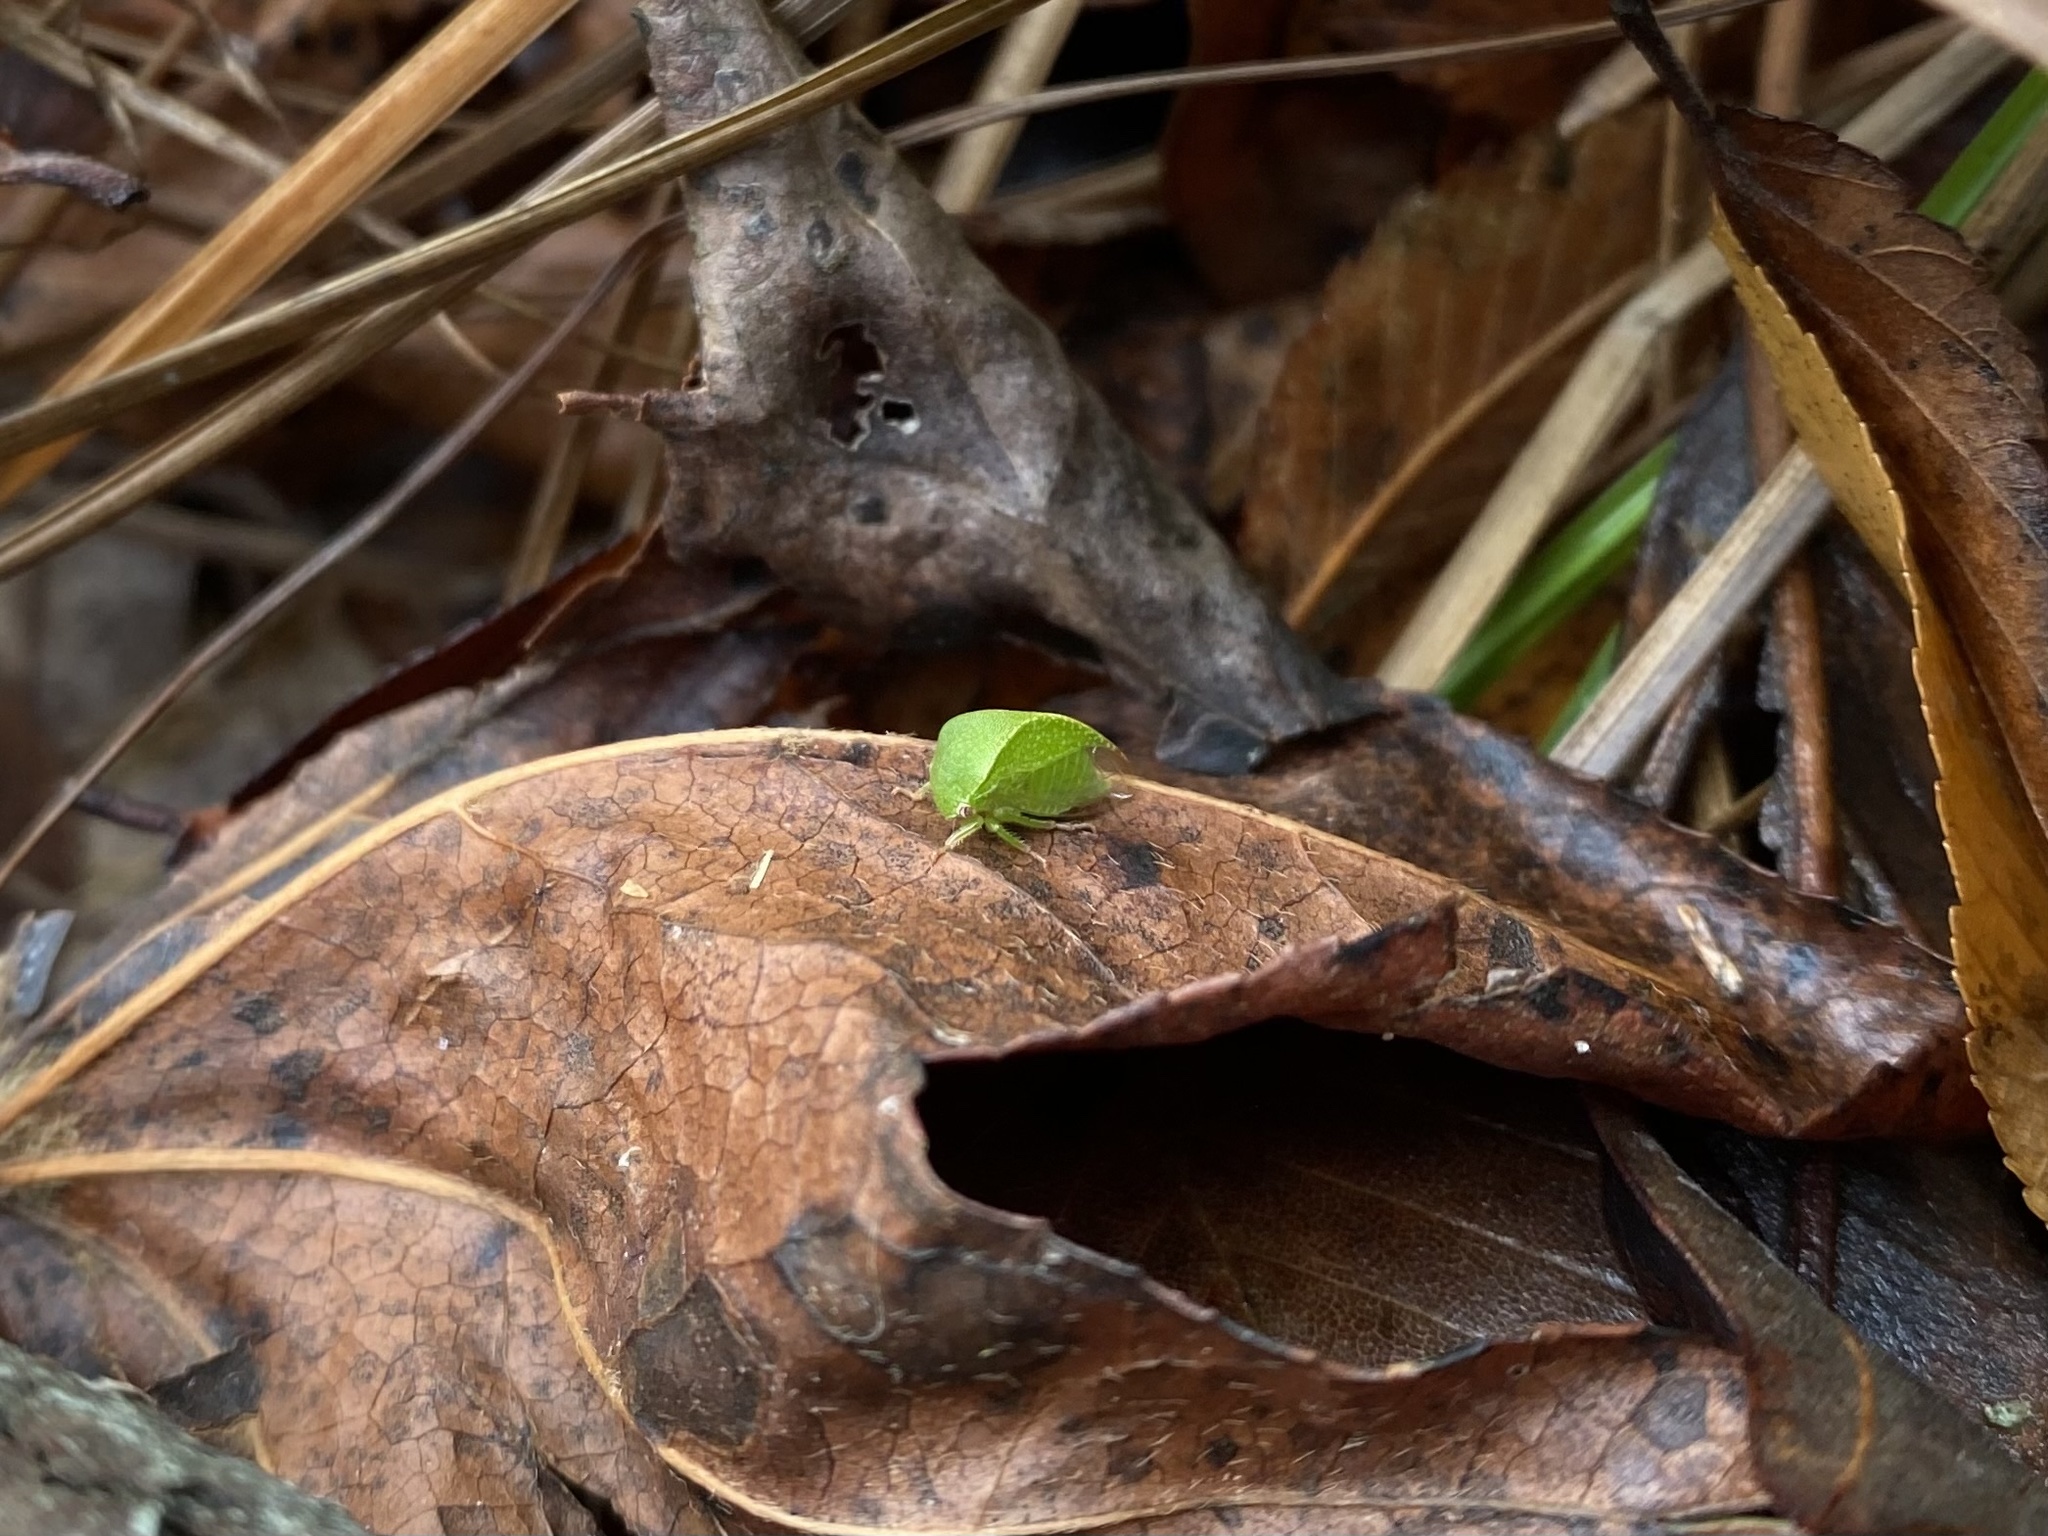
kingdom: Animalia
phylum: Arthropoda
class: Insecta
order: Hemiptera
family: Membracidae
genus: Spissistilus
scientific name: Spissistilus festina
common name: Membracid bug
